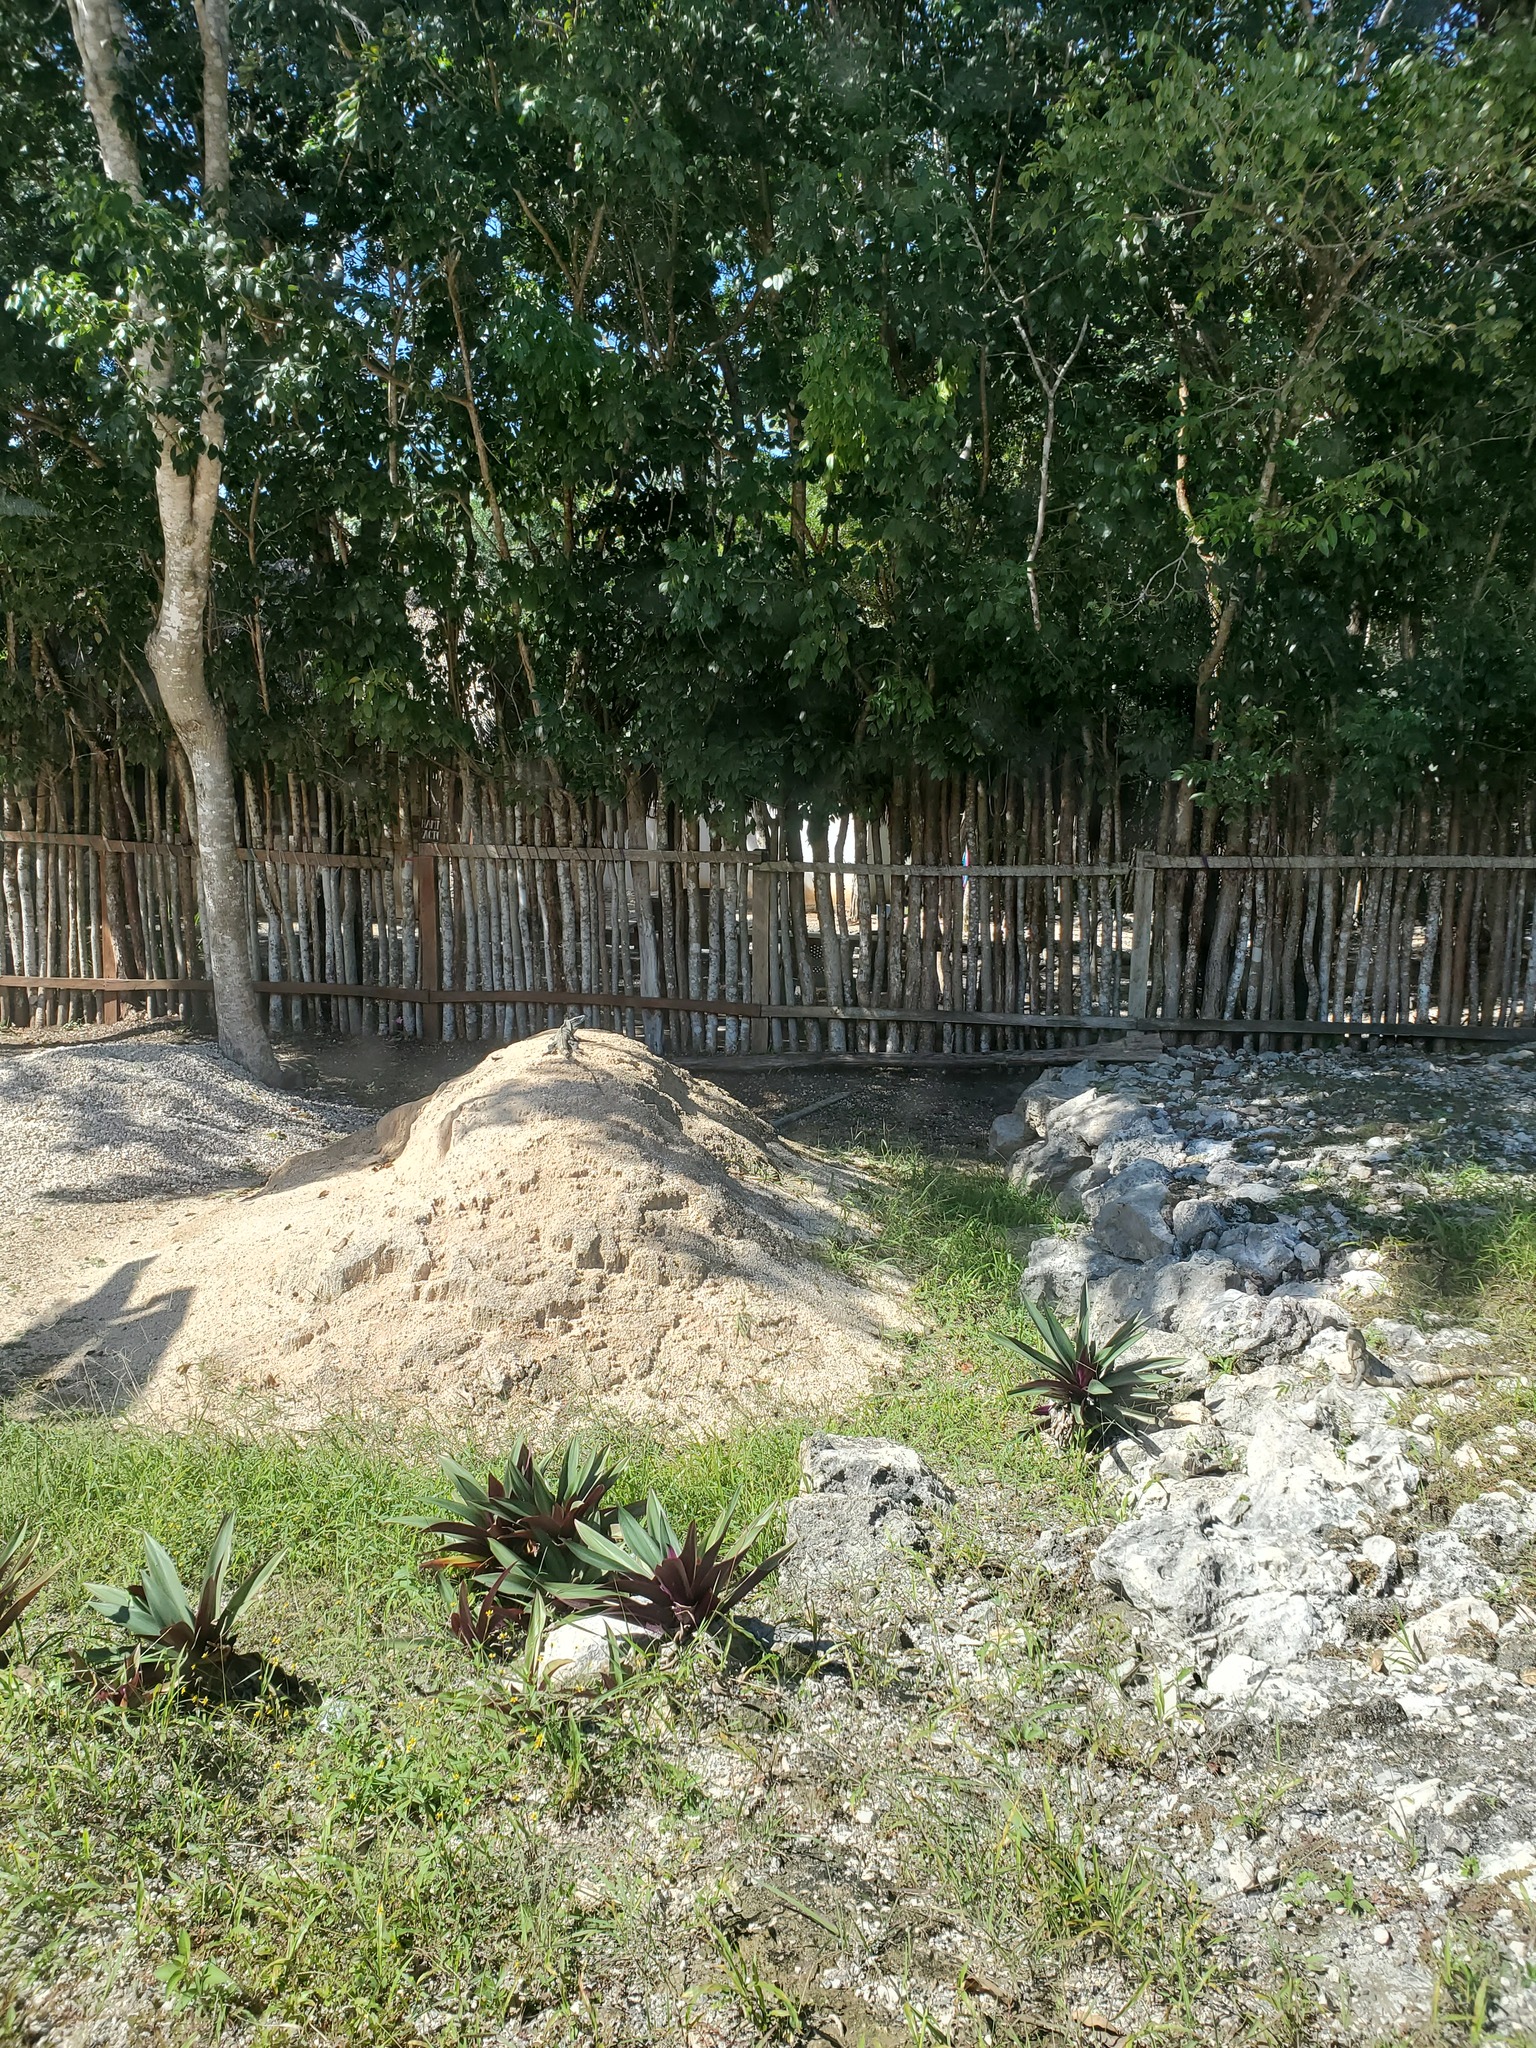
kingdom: Animalia
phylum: Chordata
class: Squamata
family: Iguanidae
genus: Ctenosaura
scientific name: Ctenosaura similis
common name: Black spiny-tailed iguana
